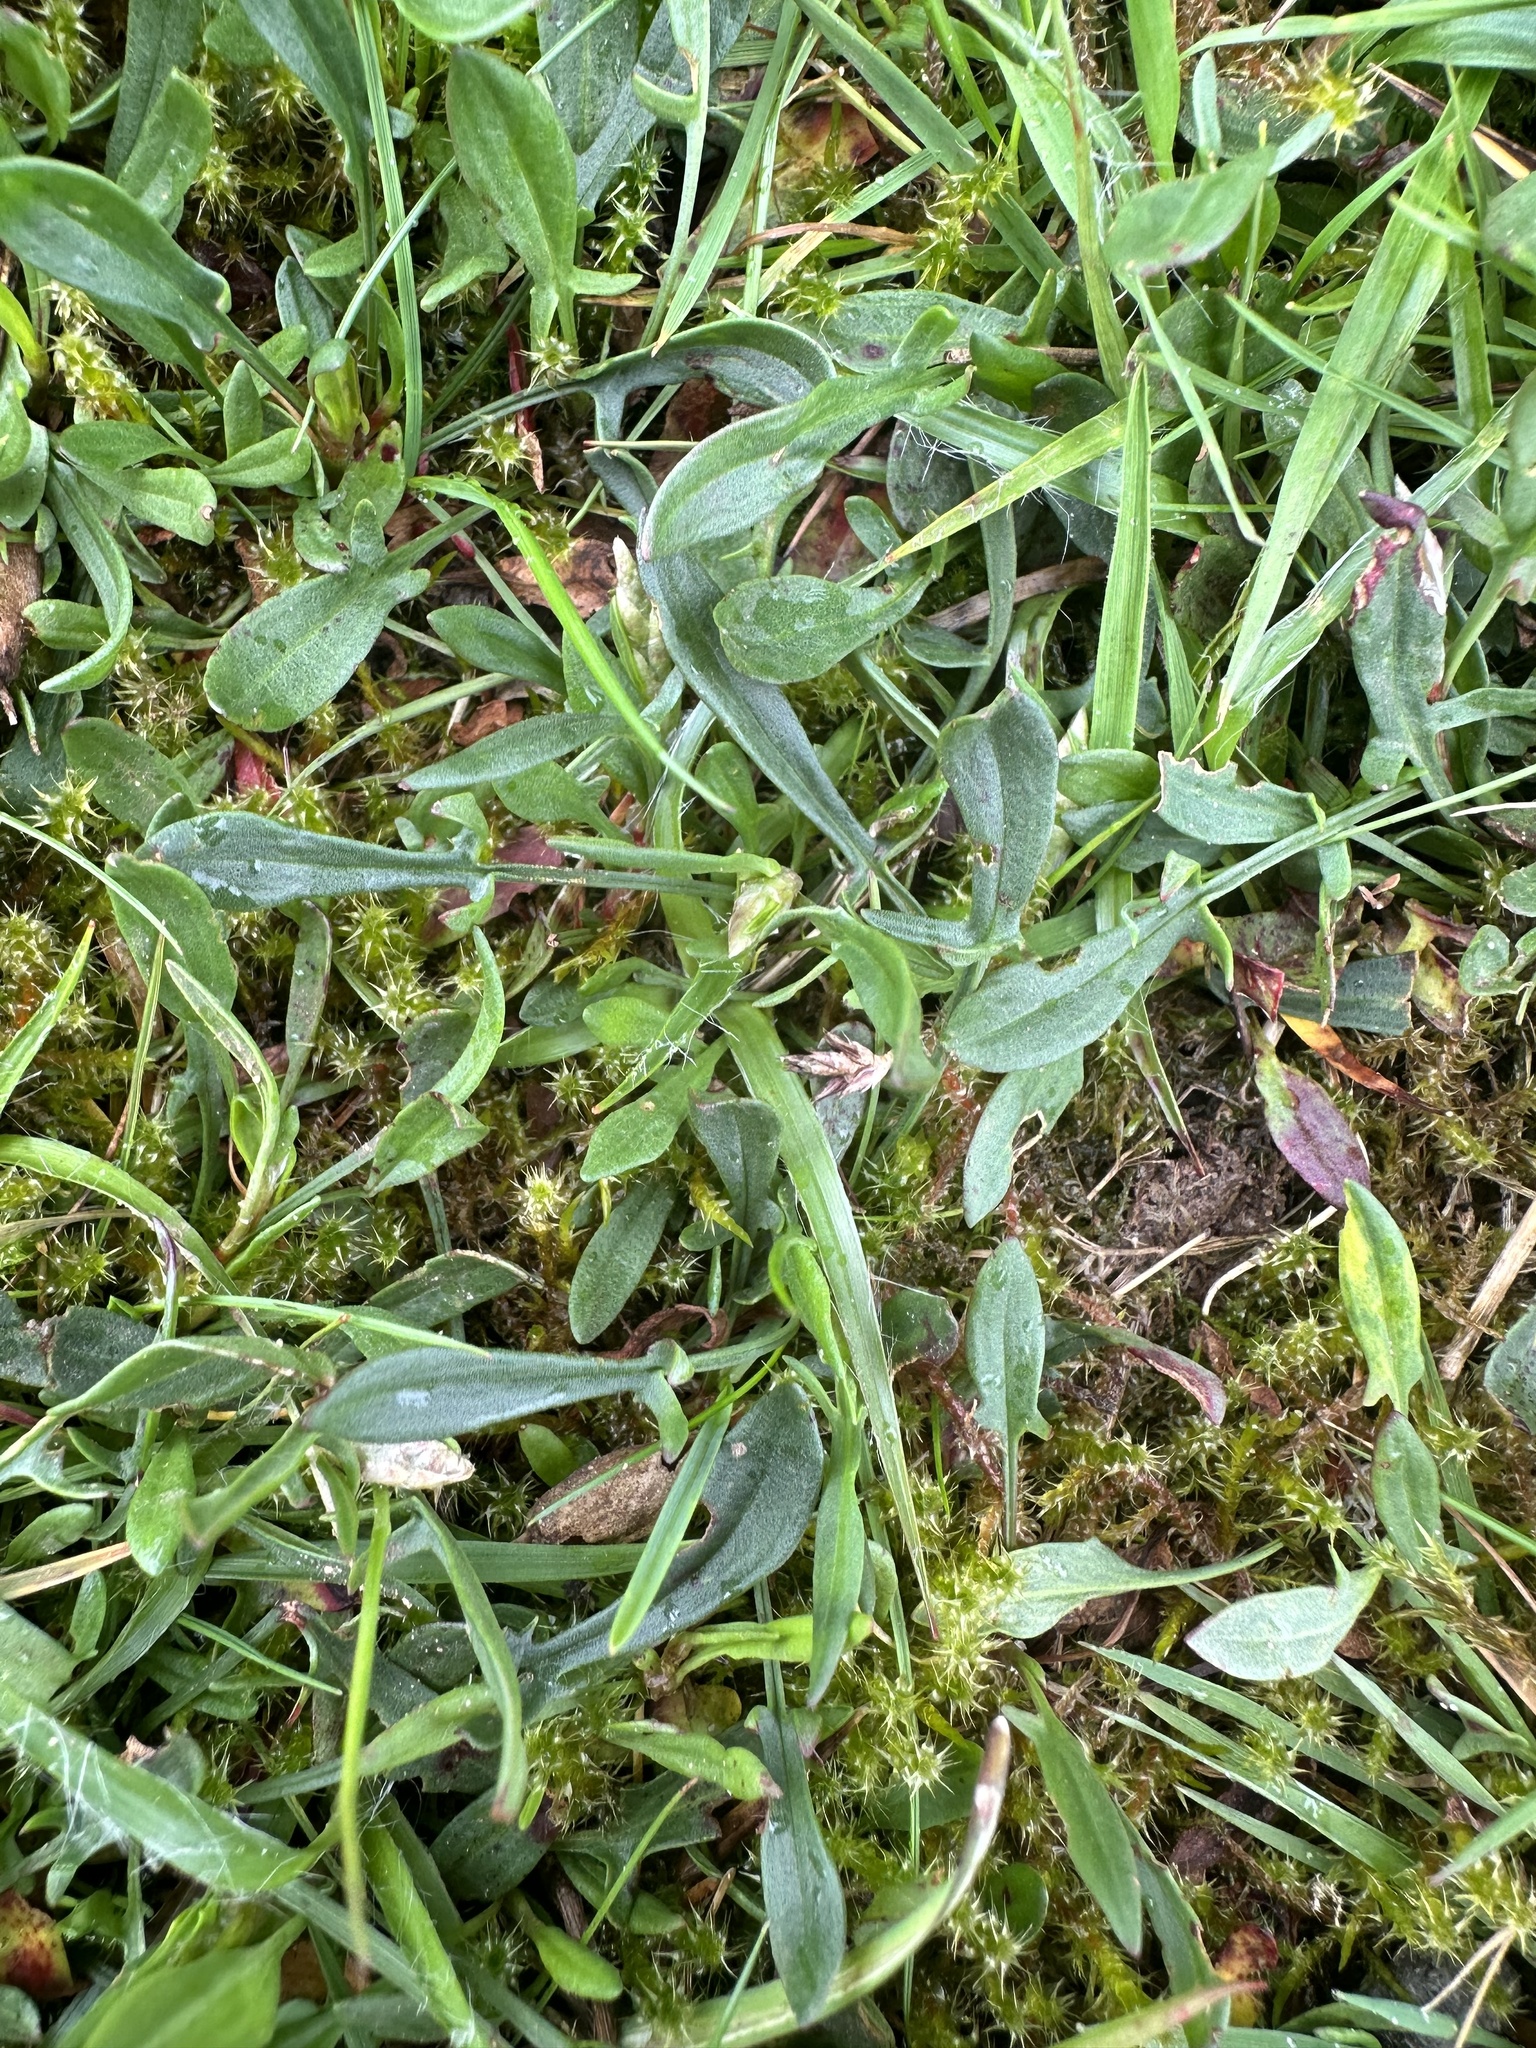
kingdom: Plantae
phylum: Tracheophyta
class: Magnoliopsida
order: Caryophyllales
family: Polygonaceae
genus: Rumex
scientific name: Rumex acetosella
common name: Common sheep sorrel
